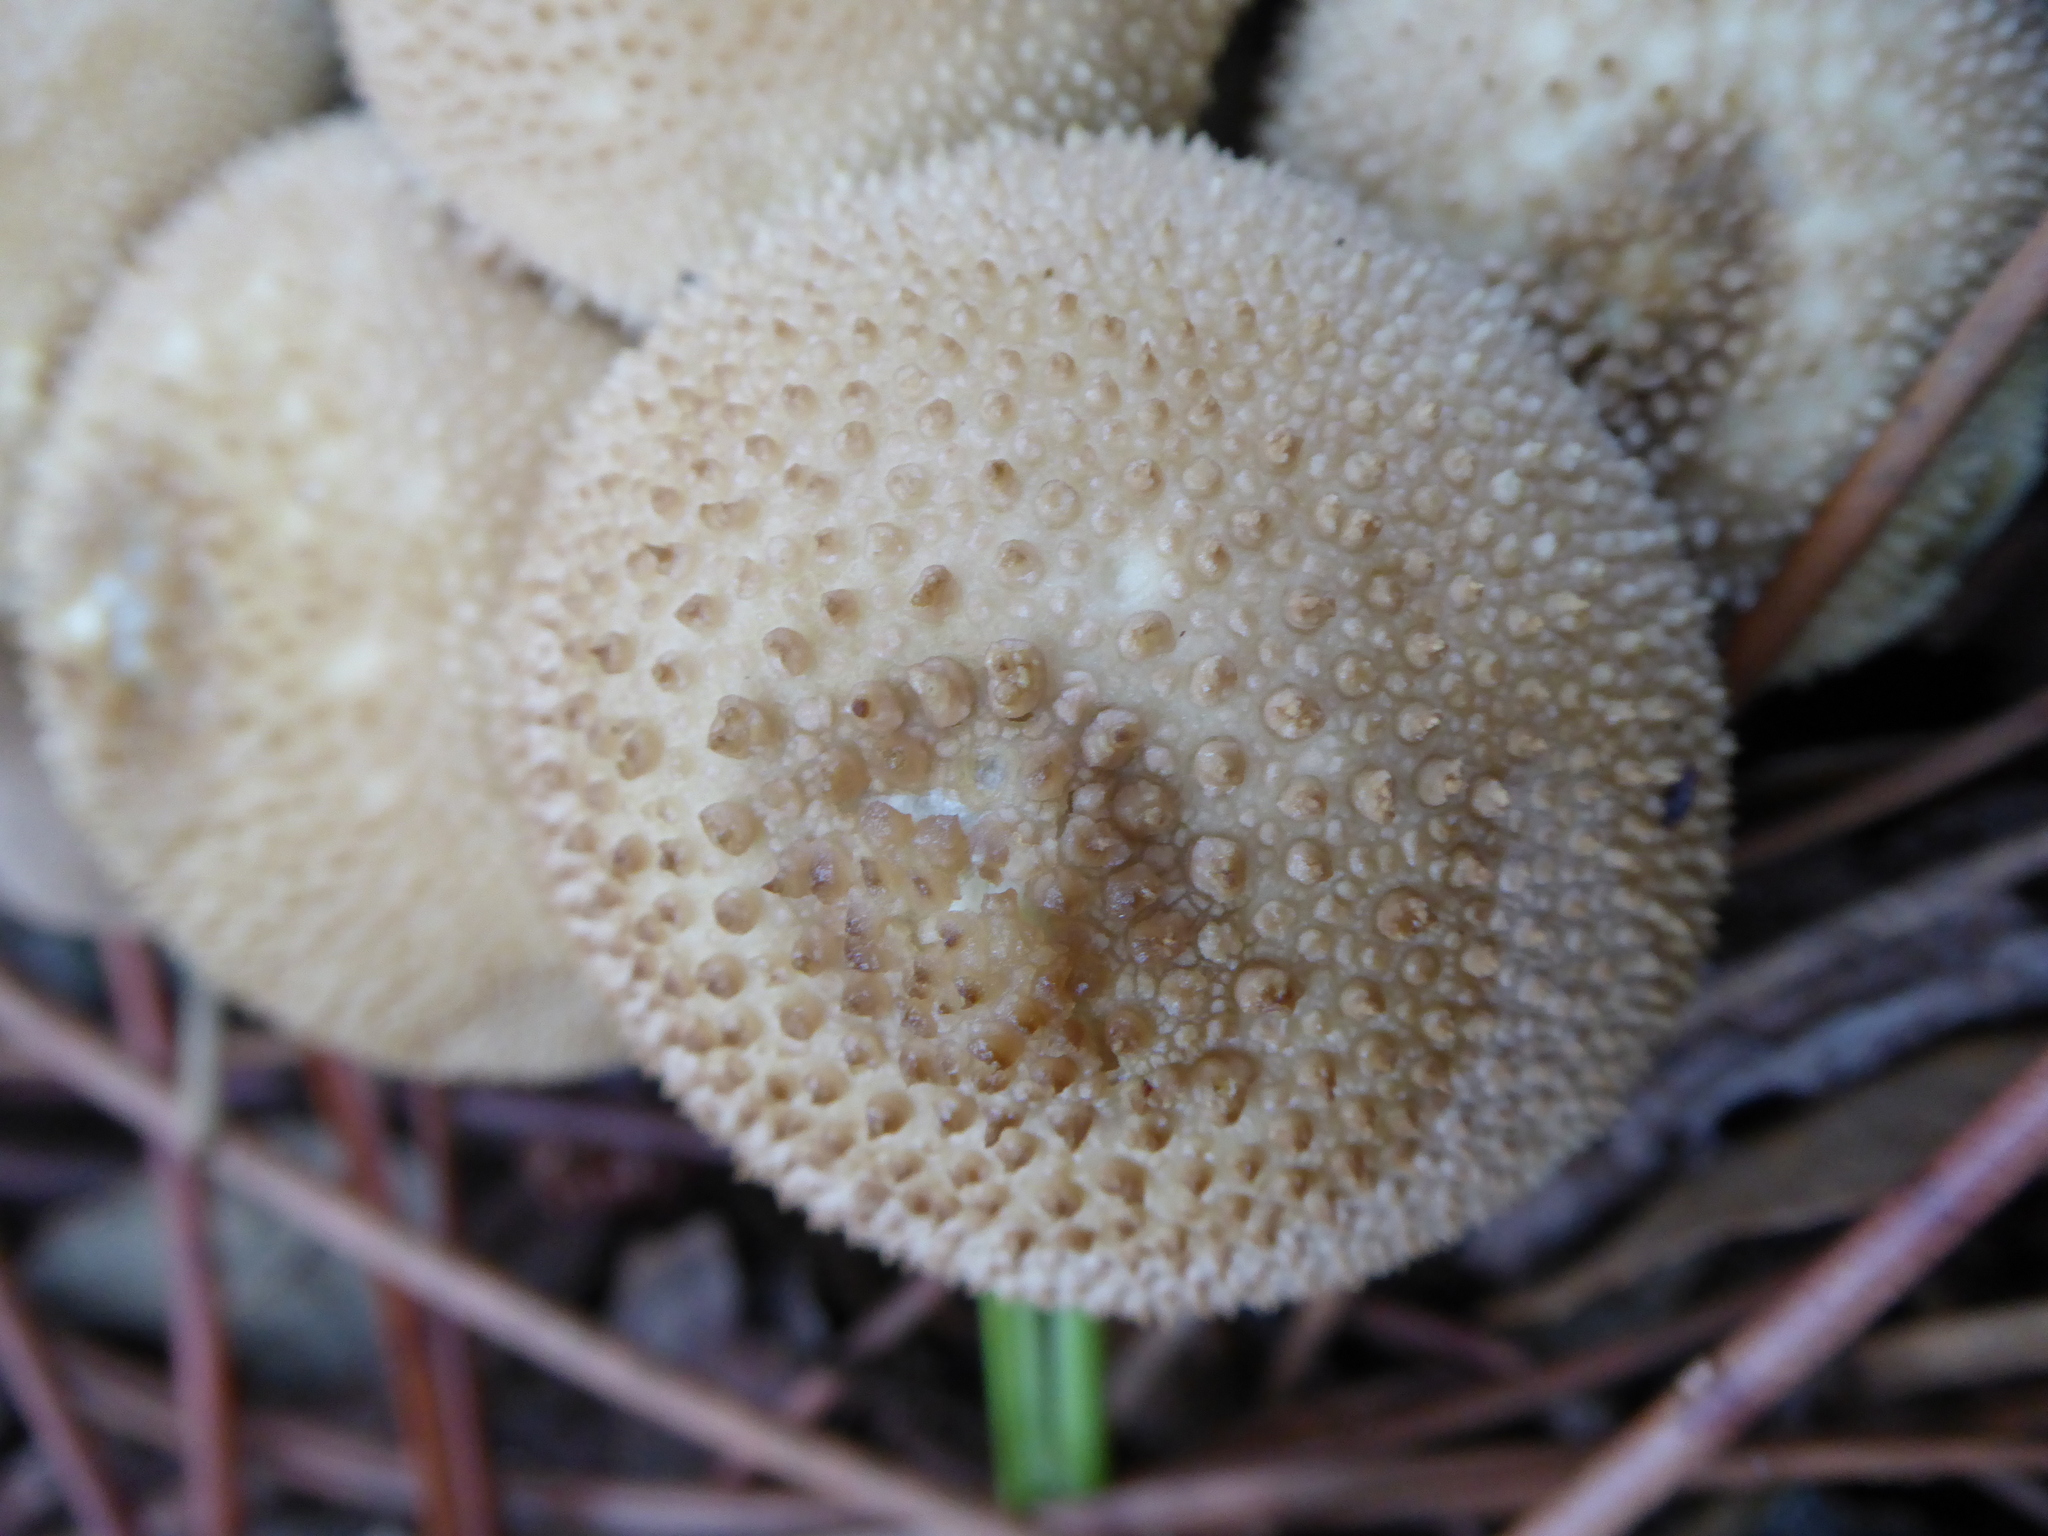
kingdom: Fungi
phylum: Basidiomycota
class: Agaricomycetes
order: Agaricales
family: Lycoperdaceae
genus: Lycoperdon
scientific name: Lycoperdon perlatum
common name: Common puffball
